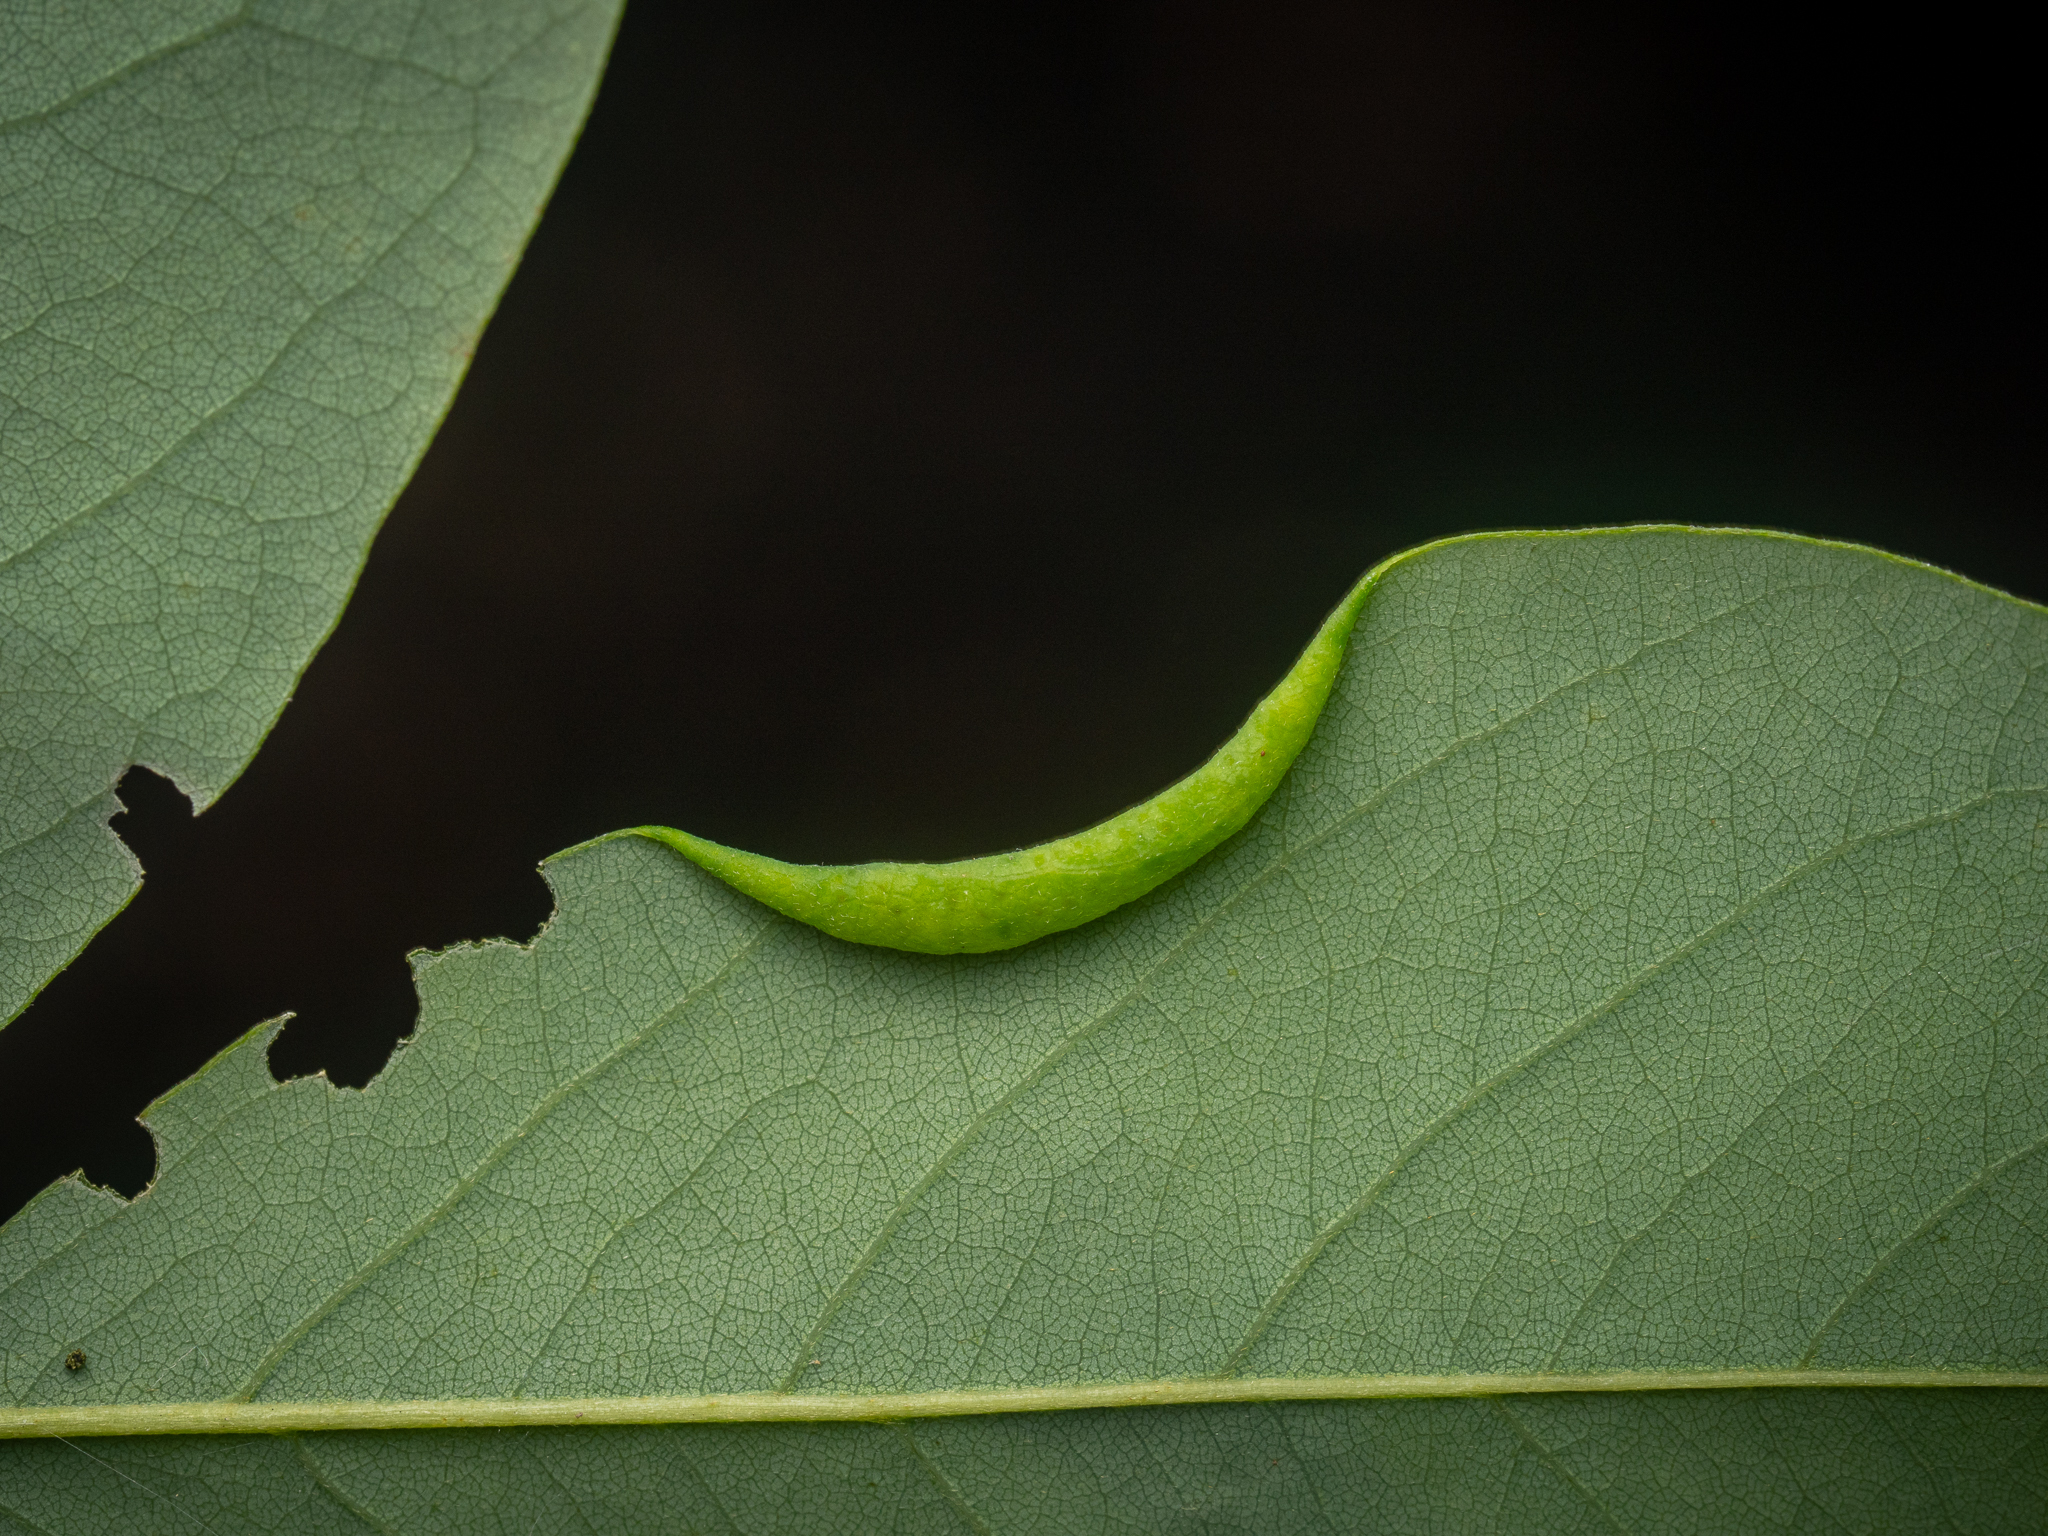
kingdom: Animalia
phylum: Arthropoda
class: Insecta
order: Diptera
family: Cecidomyiidae
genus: Obolodiplosis
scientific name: Obolodiplosis robiniae
